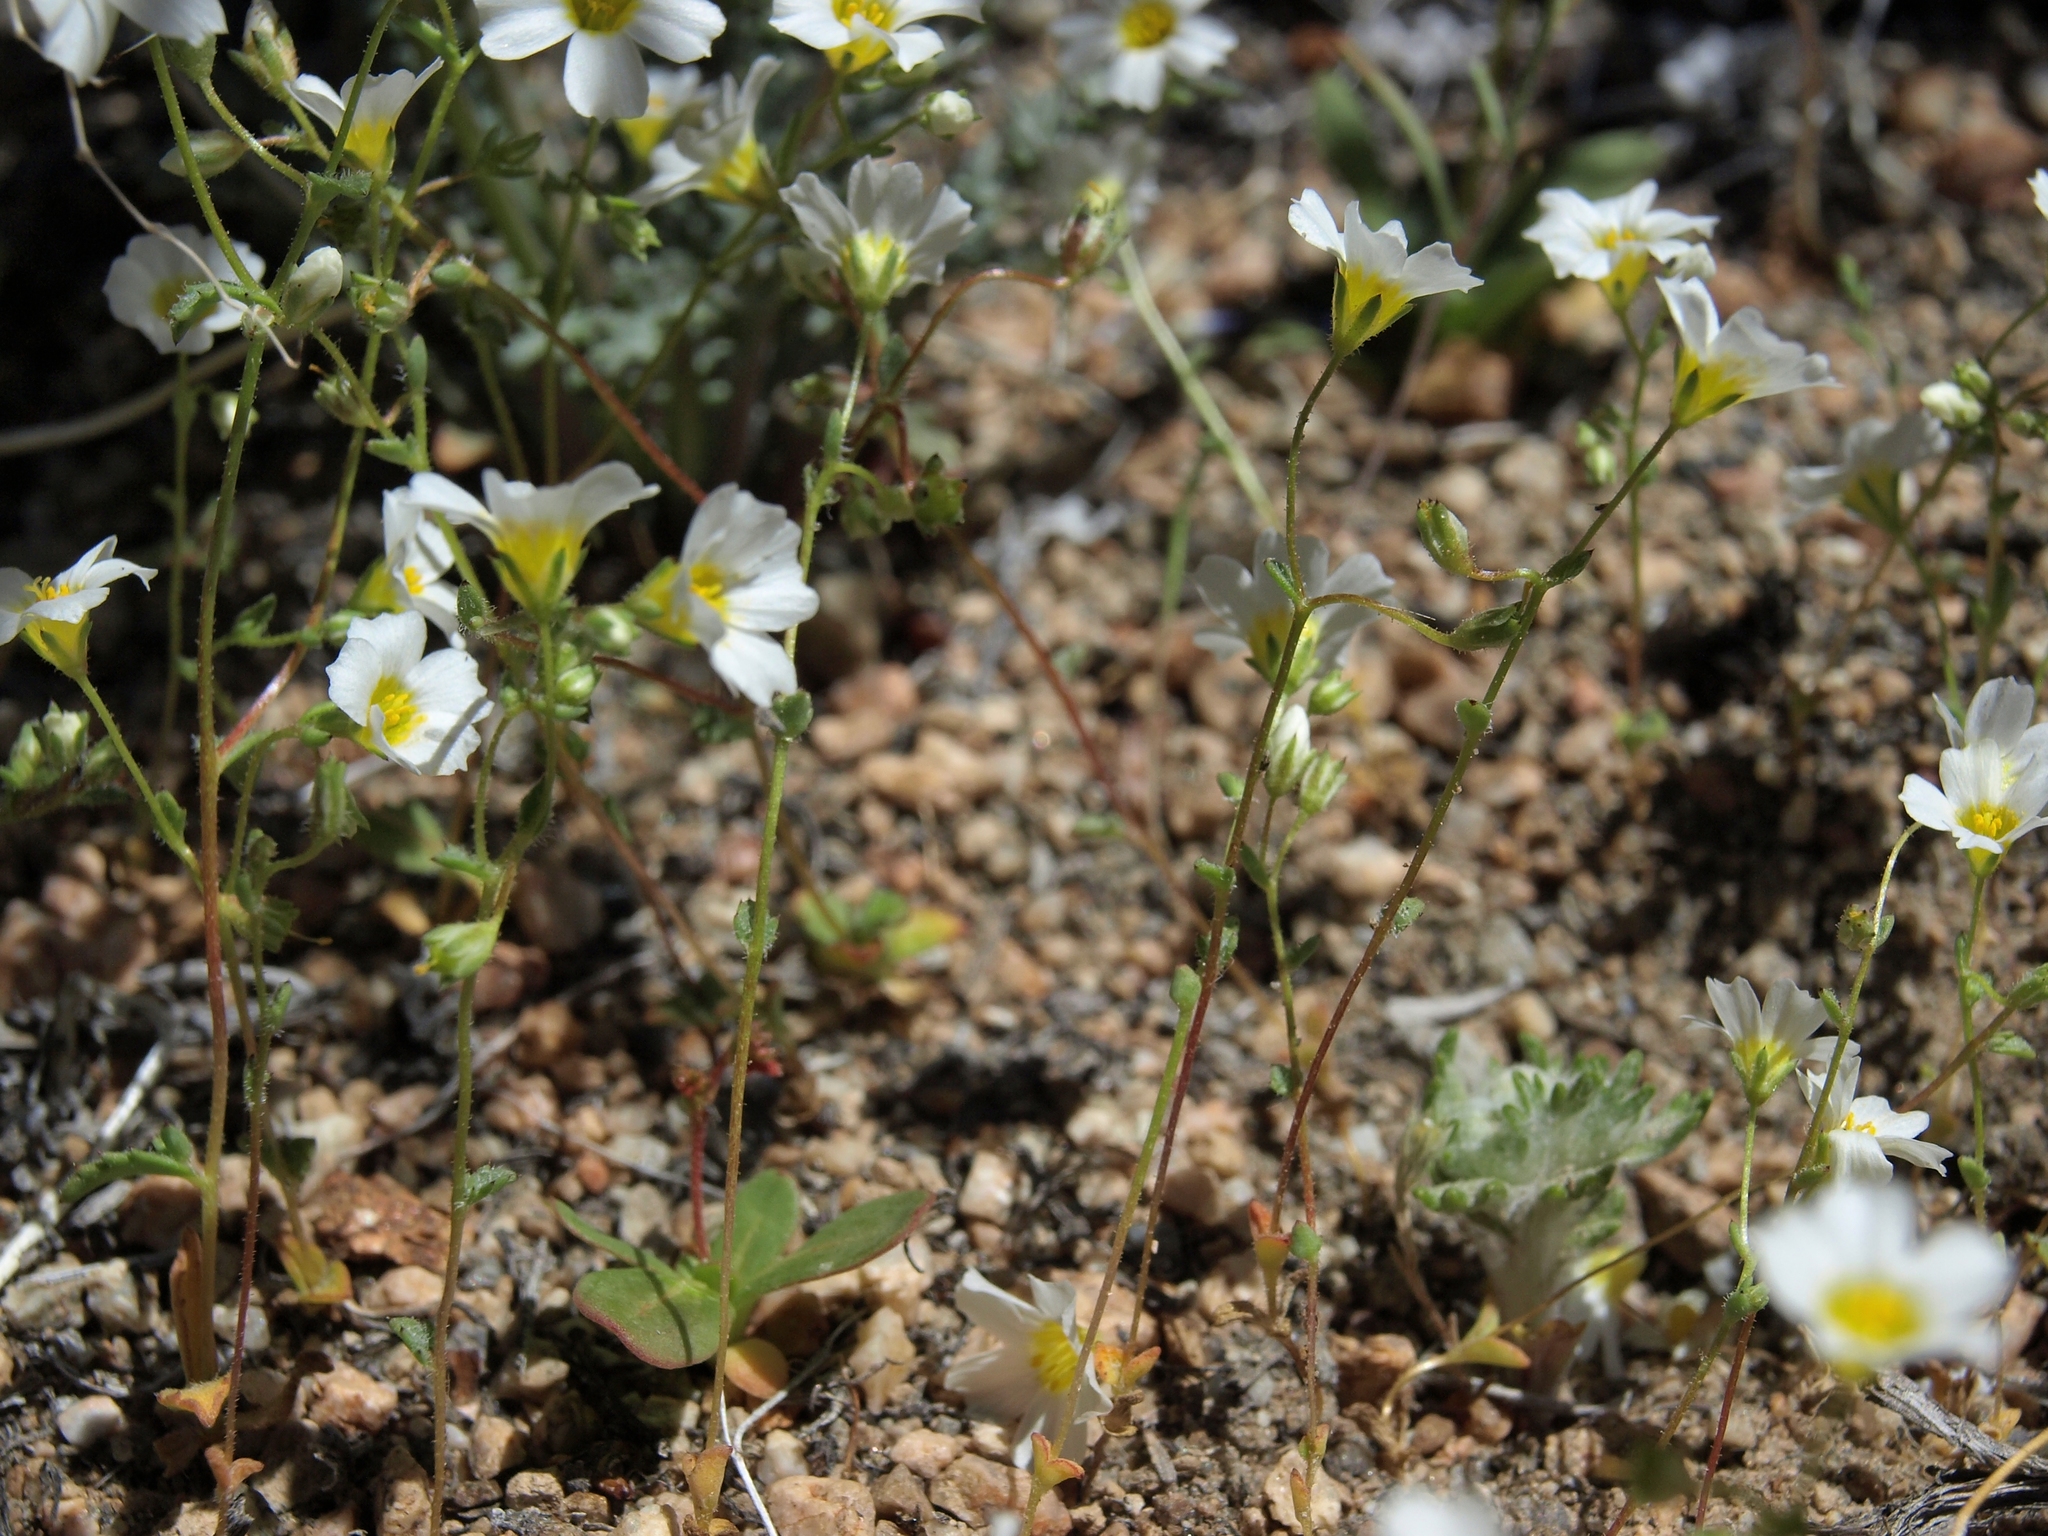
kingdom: Plantae
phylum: Tracheophyta
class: Magnoliopsida
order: Ericales
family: Polemoniaceae
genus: Linanthus
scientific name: Linanthus inyoensis
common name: Inyo gilia
